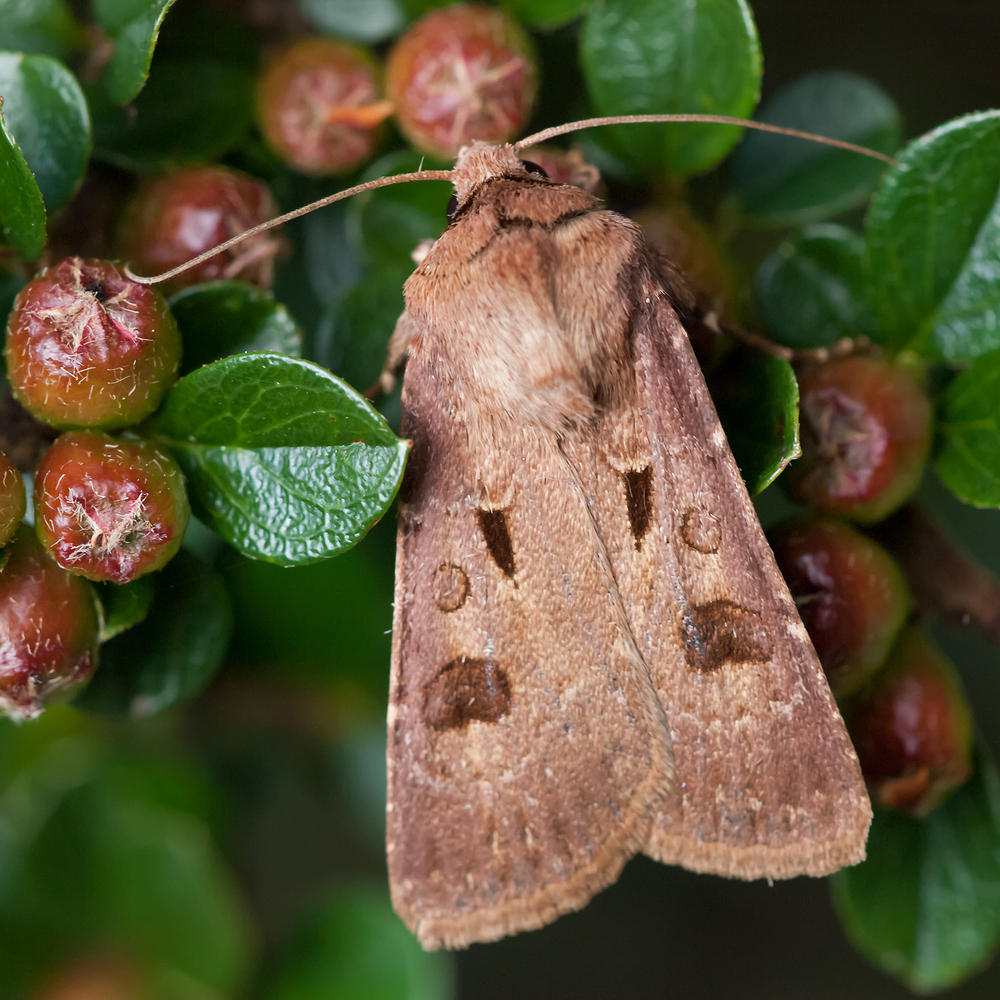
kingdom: Animalia
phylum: Arthropoda
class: Insecta
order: Lepidoptera
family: Noctuidae
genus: Agrotis
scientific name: Agrotis exclamationis
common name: Heart and dart
